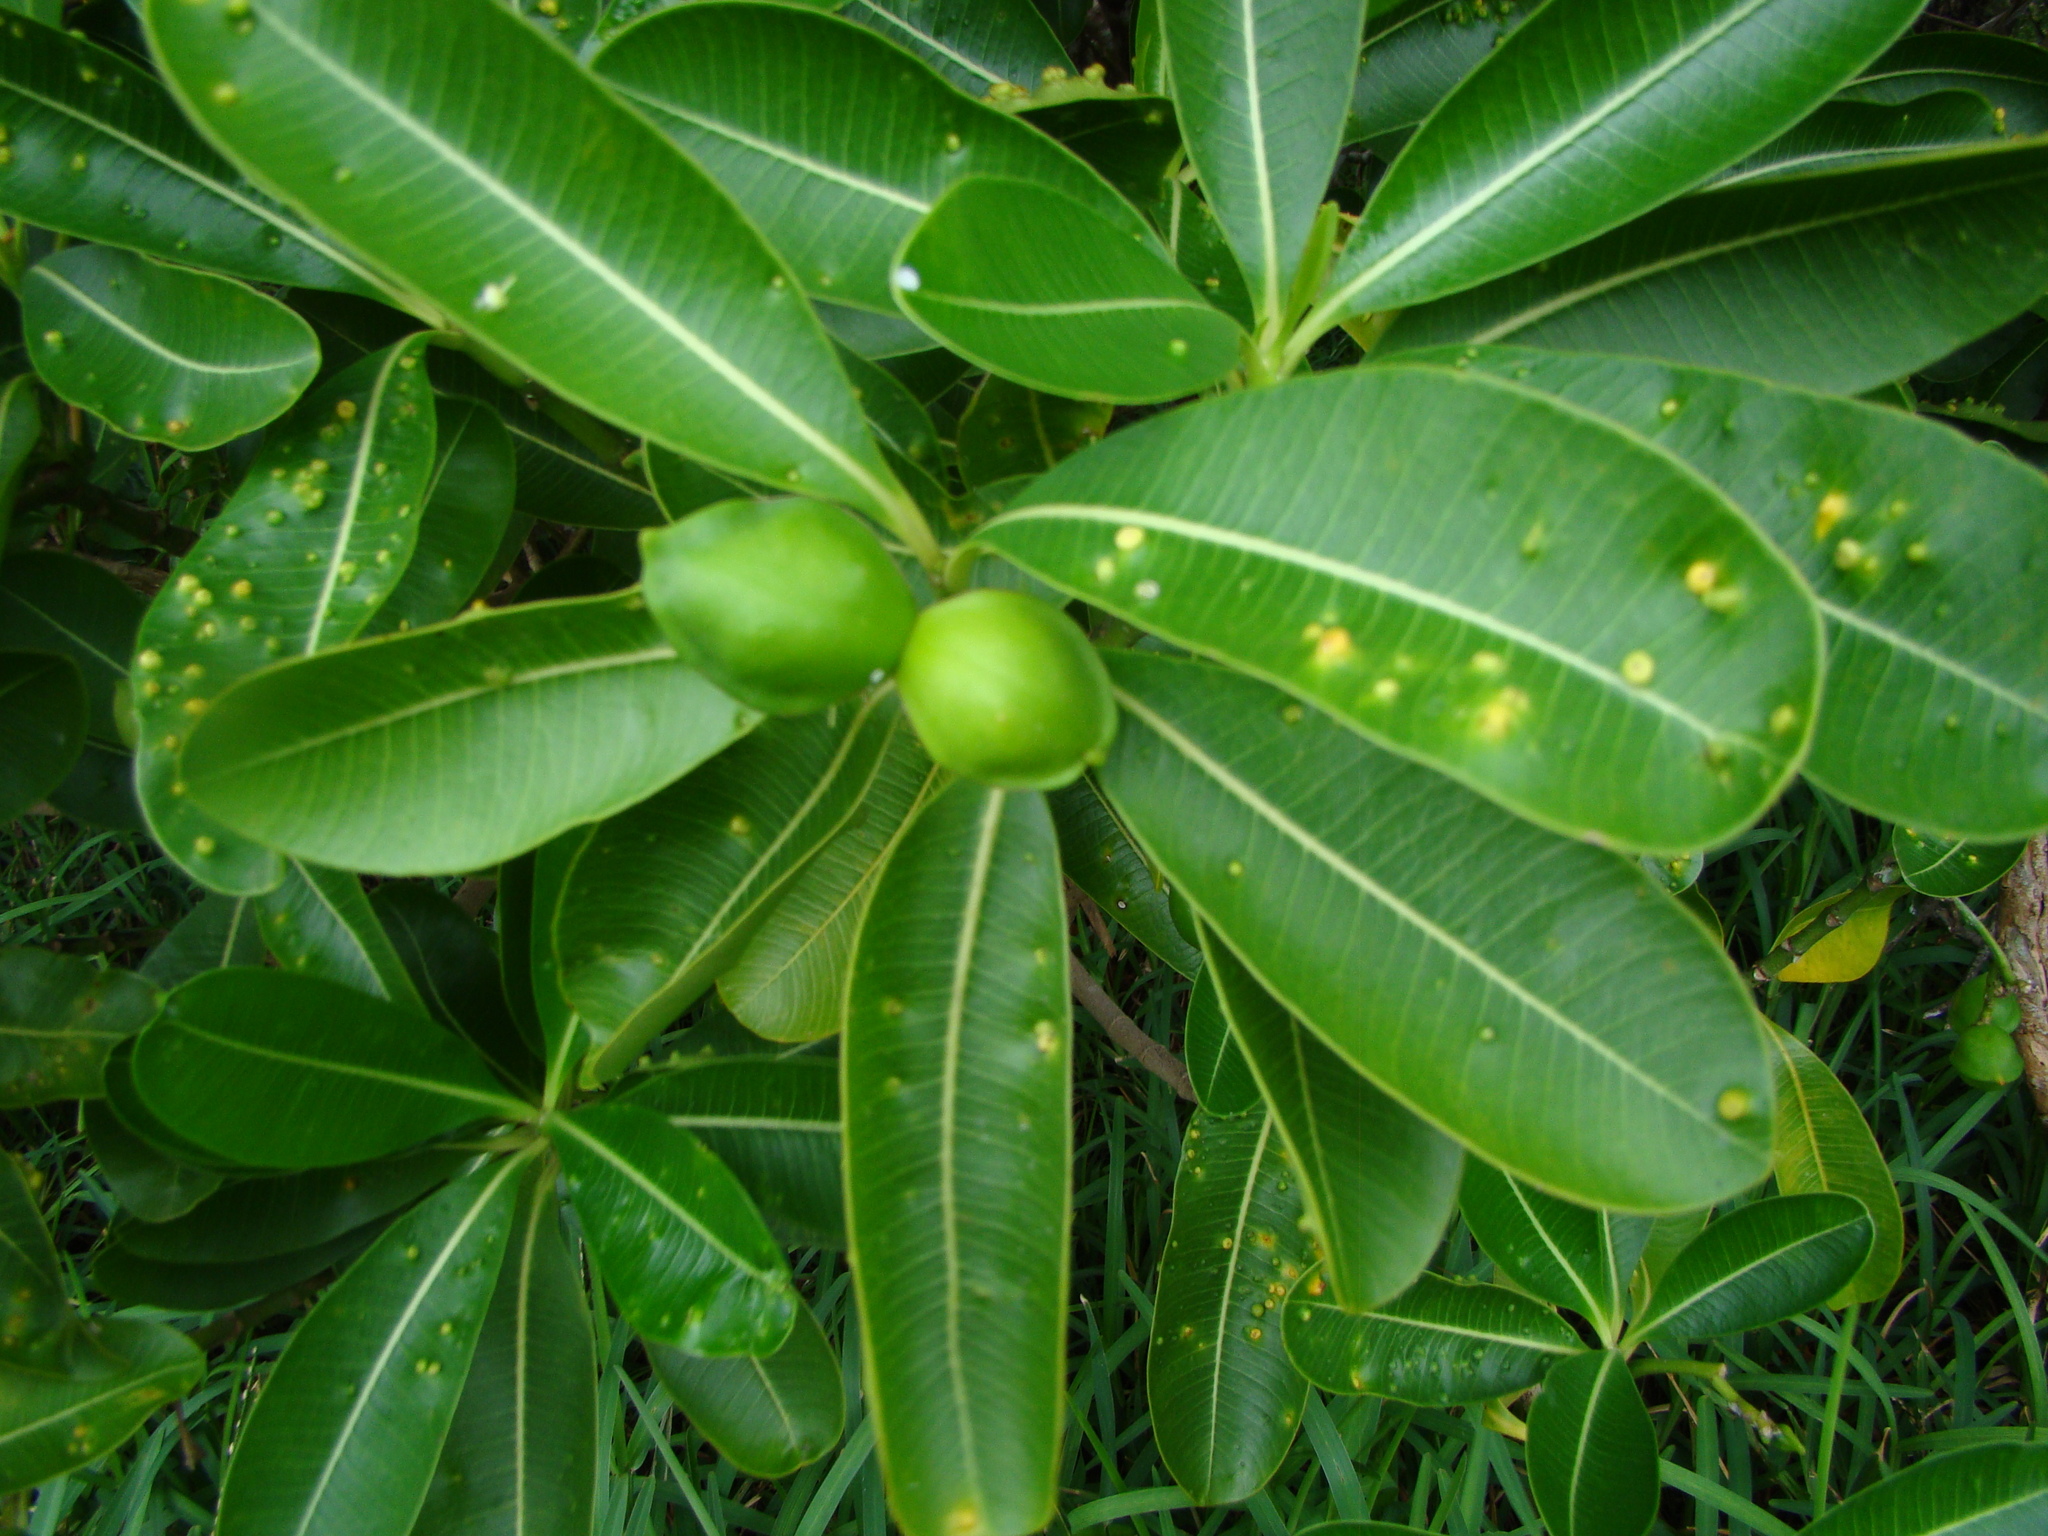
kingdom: Plantae
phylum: Tracheophyta
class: Magnoliopsida
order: Gentianales
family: Apocynaceae
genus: Ochrosia
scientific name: Ochrosia elliptica
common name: Elliptic yellowwood
